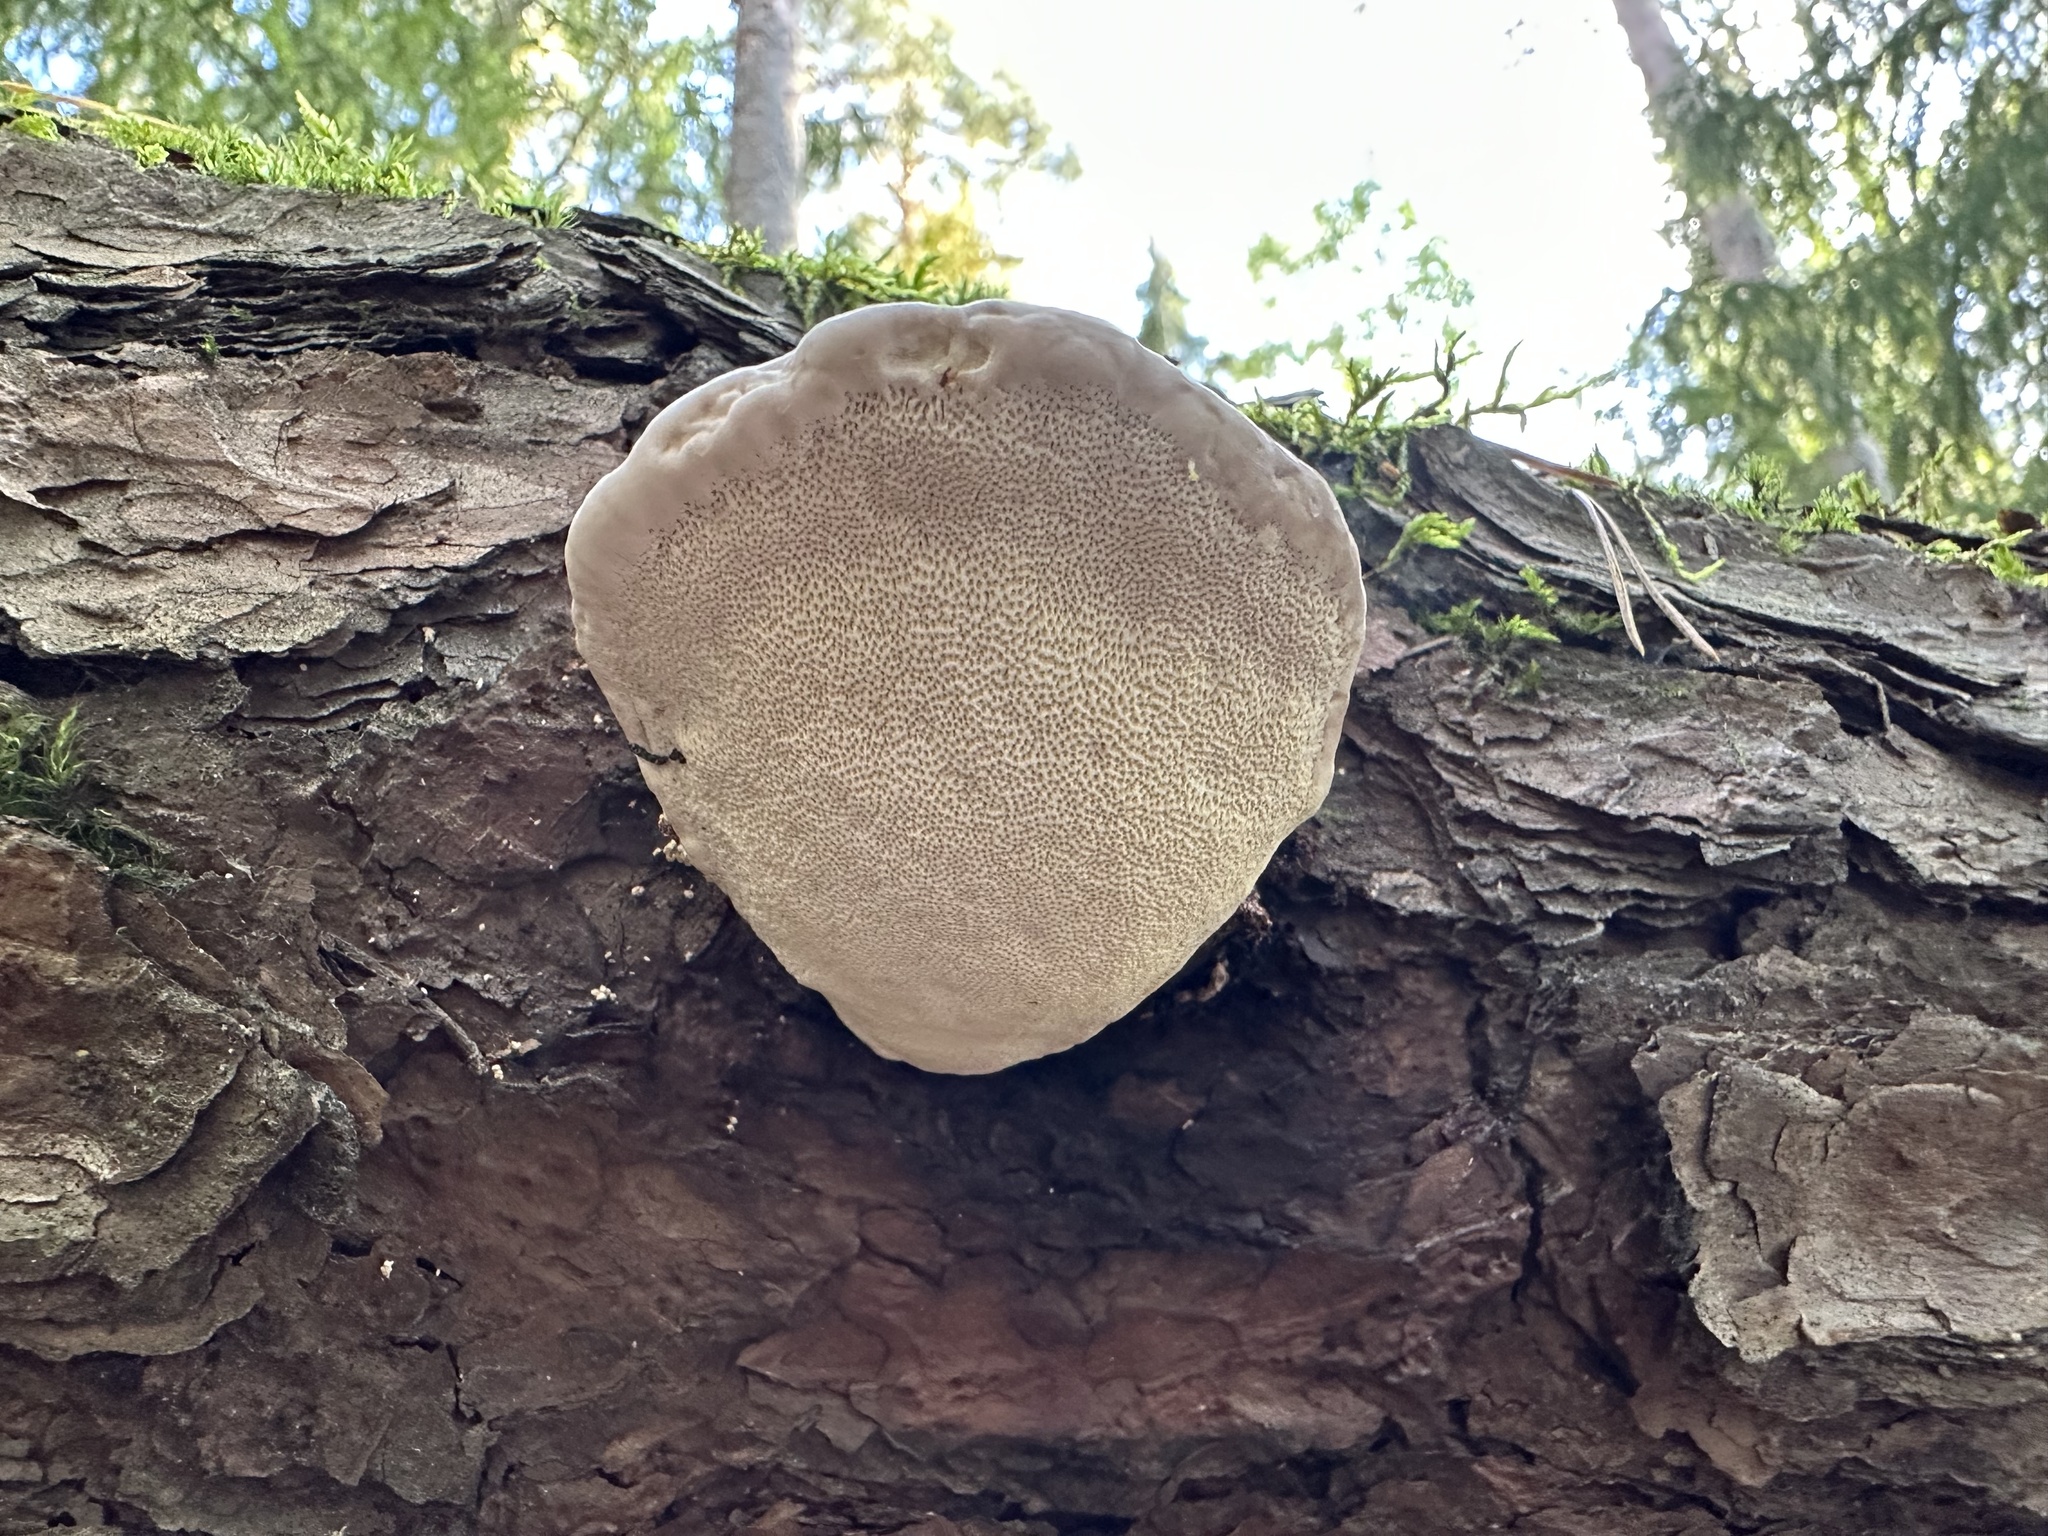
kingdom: Fungi
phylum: Basidiomycota
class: Agaricomycetes
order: Polyporales
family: Fomitopsidaceae
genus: Fomitopsis
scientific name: Fomitopsis pinicola
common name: Red-belted bracket
